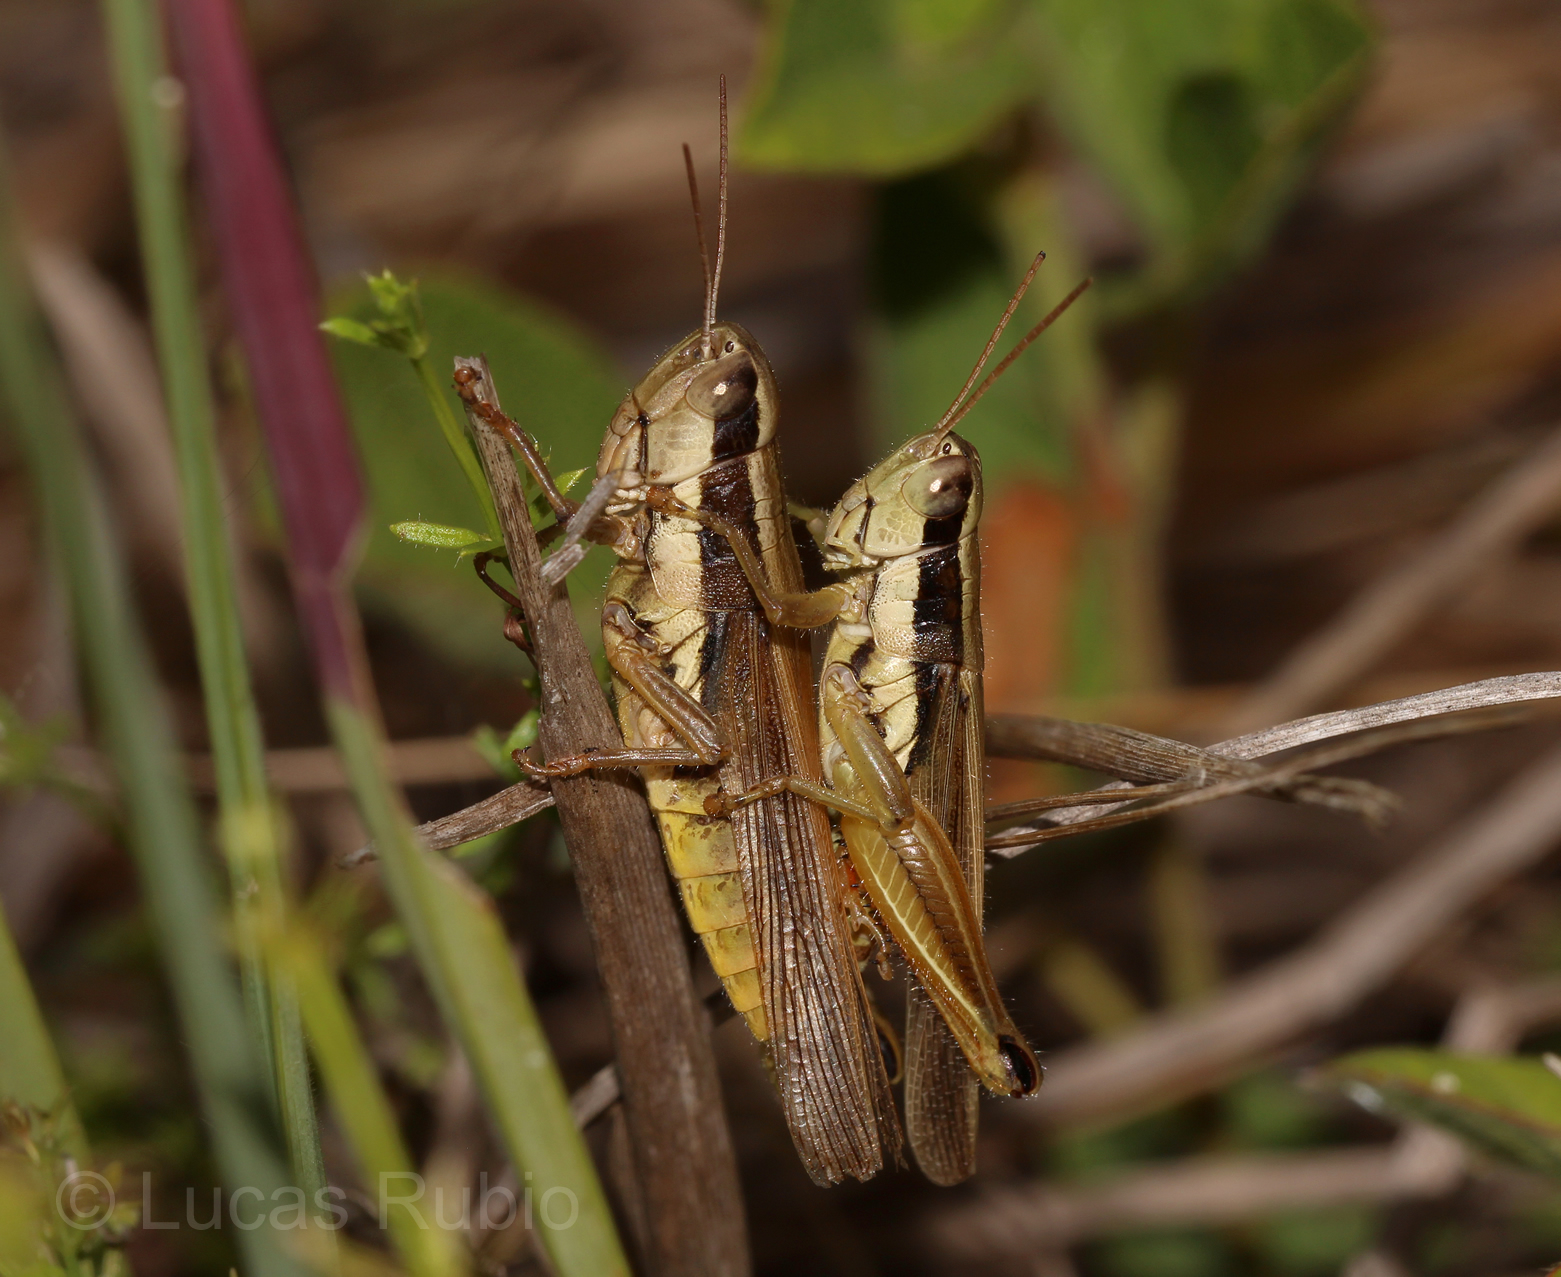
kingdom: Animalia
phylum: Arthropoda
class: Insecta
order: Orthoptera
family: Acrididae
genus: Scotussa
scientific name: Scotussa lemniscata
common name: Slender orange-legged grasshopper
